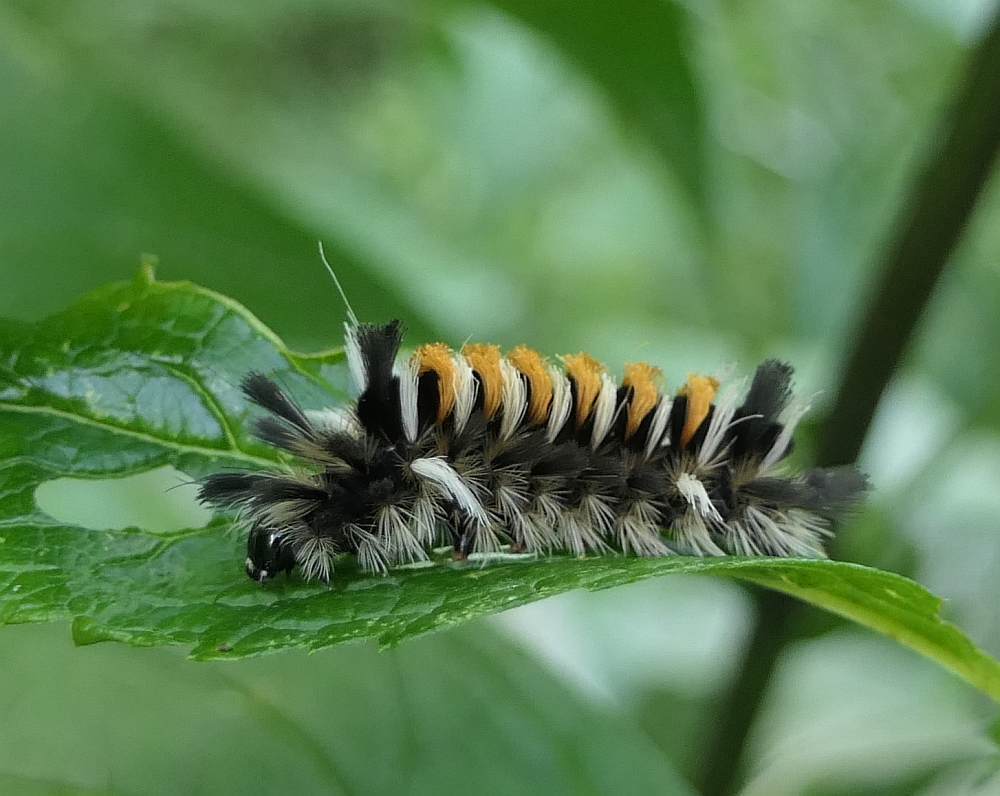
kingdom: Animalia
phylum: Arthropoda
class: Insecta
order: Lepidoptera
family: Erebidae
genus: Euchaetes
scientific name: Euchaetes egle
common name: Milkweed tussock moth
